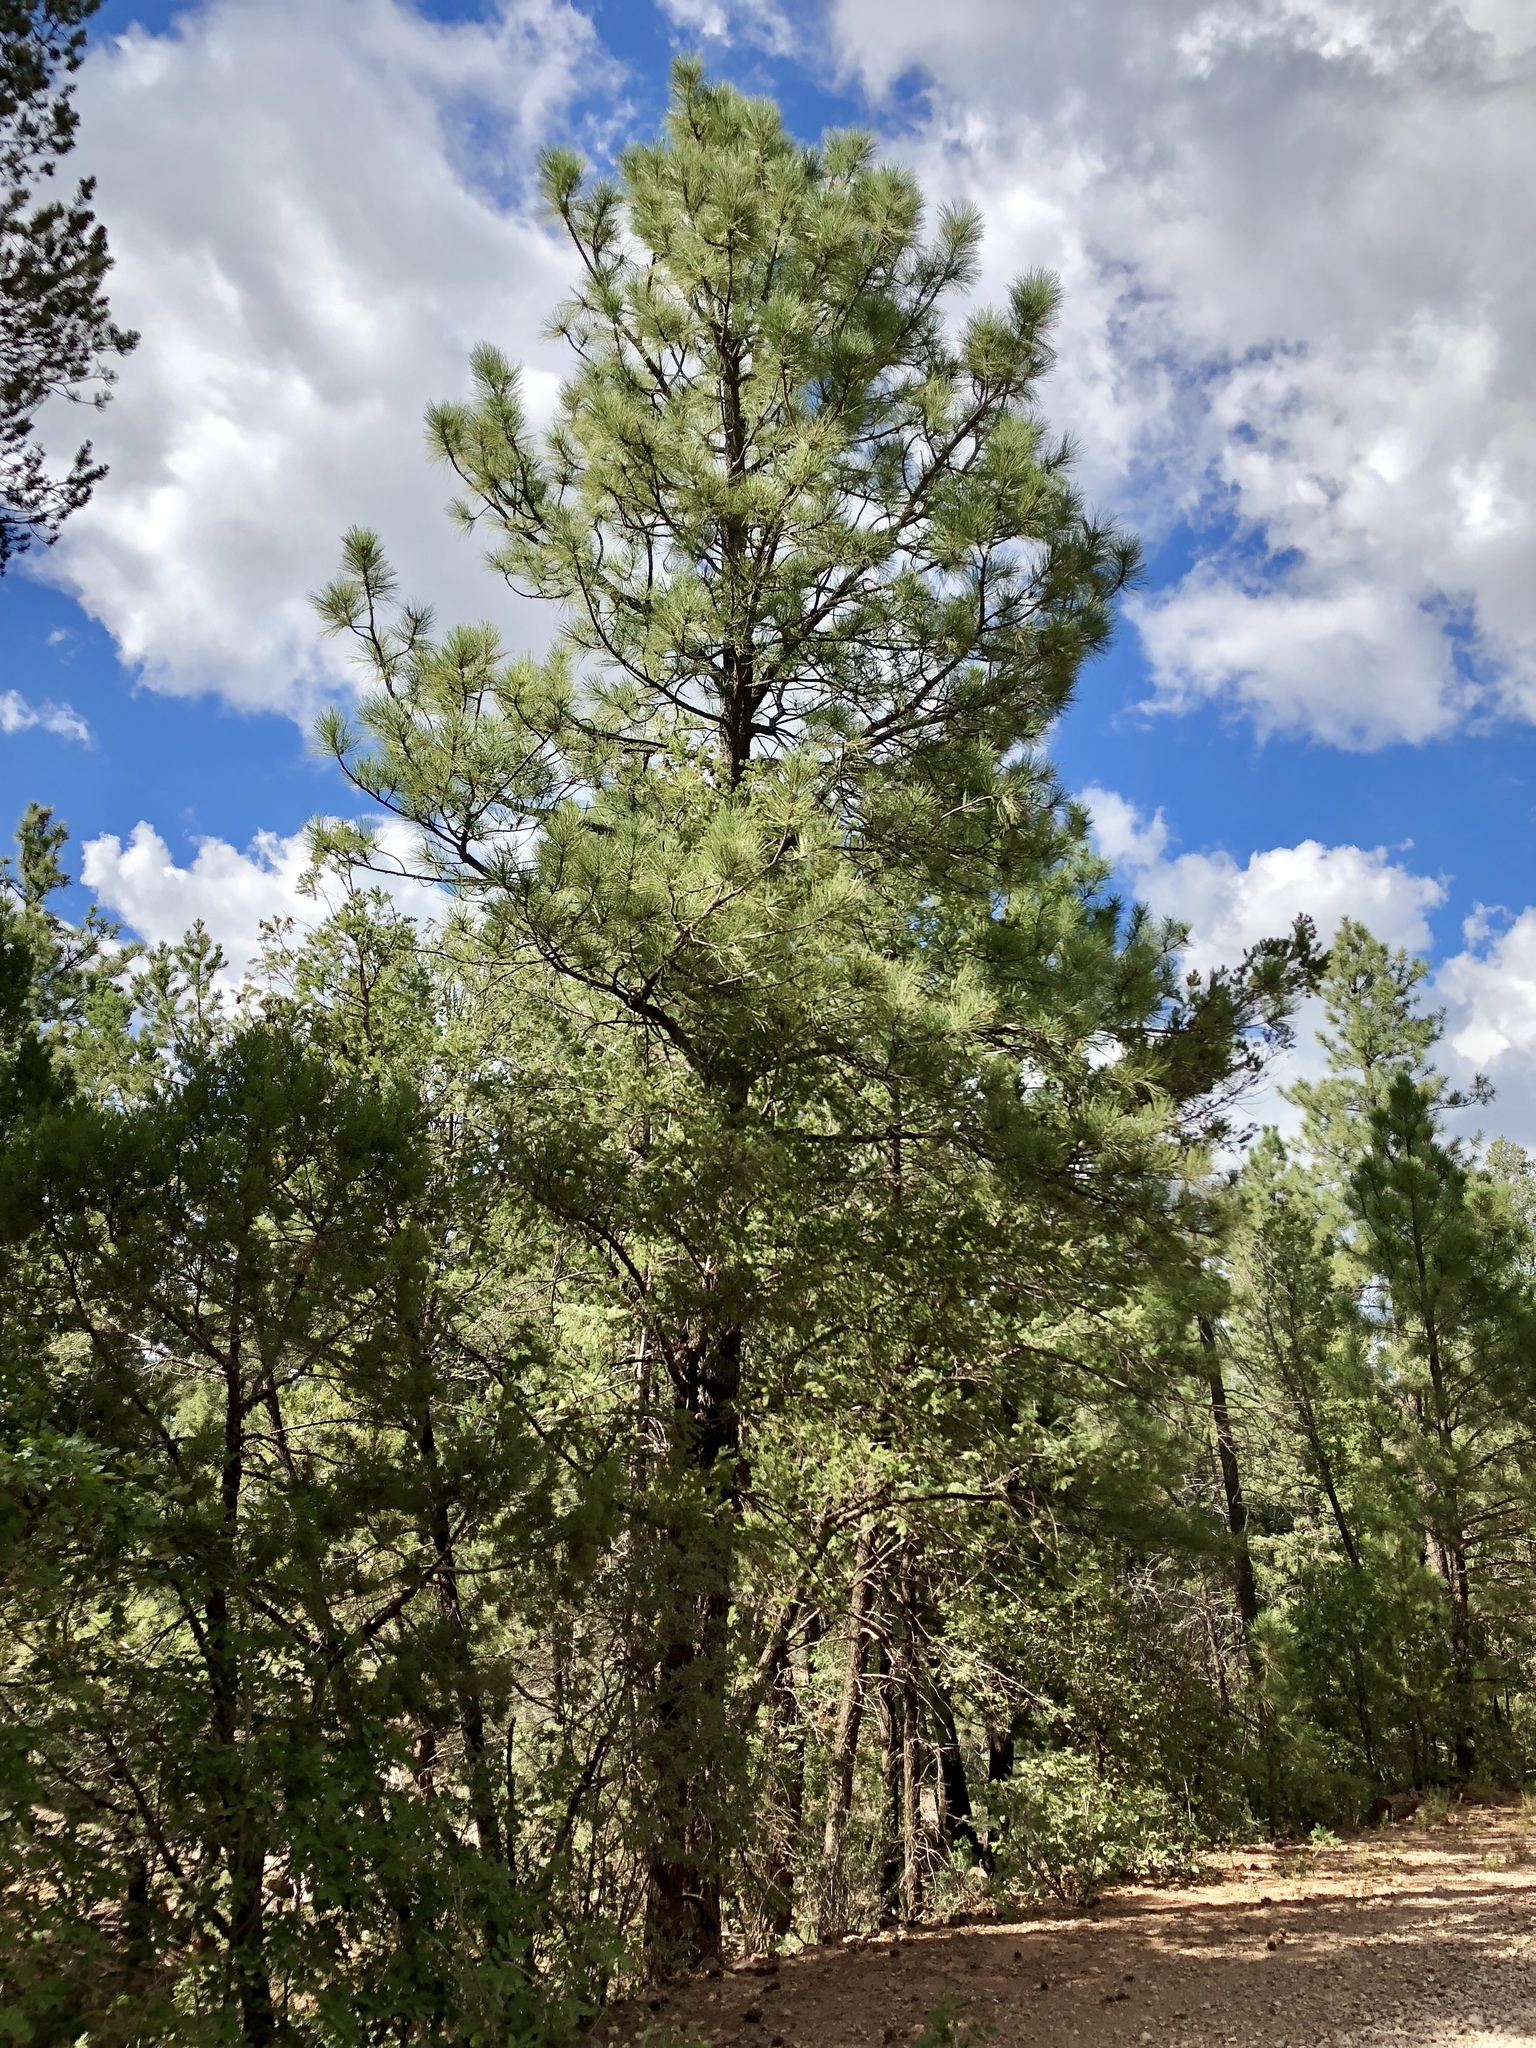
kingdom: Plantae
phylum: Tracheophyta
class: Pinopsida
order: Pinales
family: Pinaceae
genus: Pinus
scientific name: Pinus ponderosa
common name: Western yellow-pine
